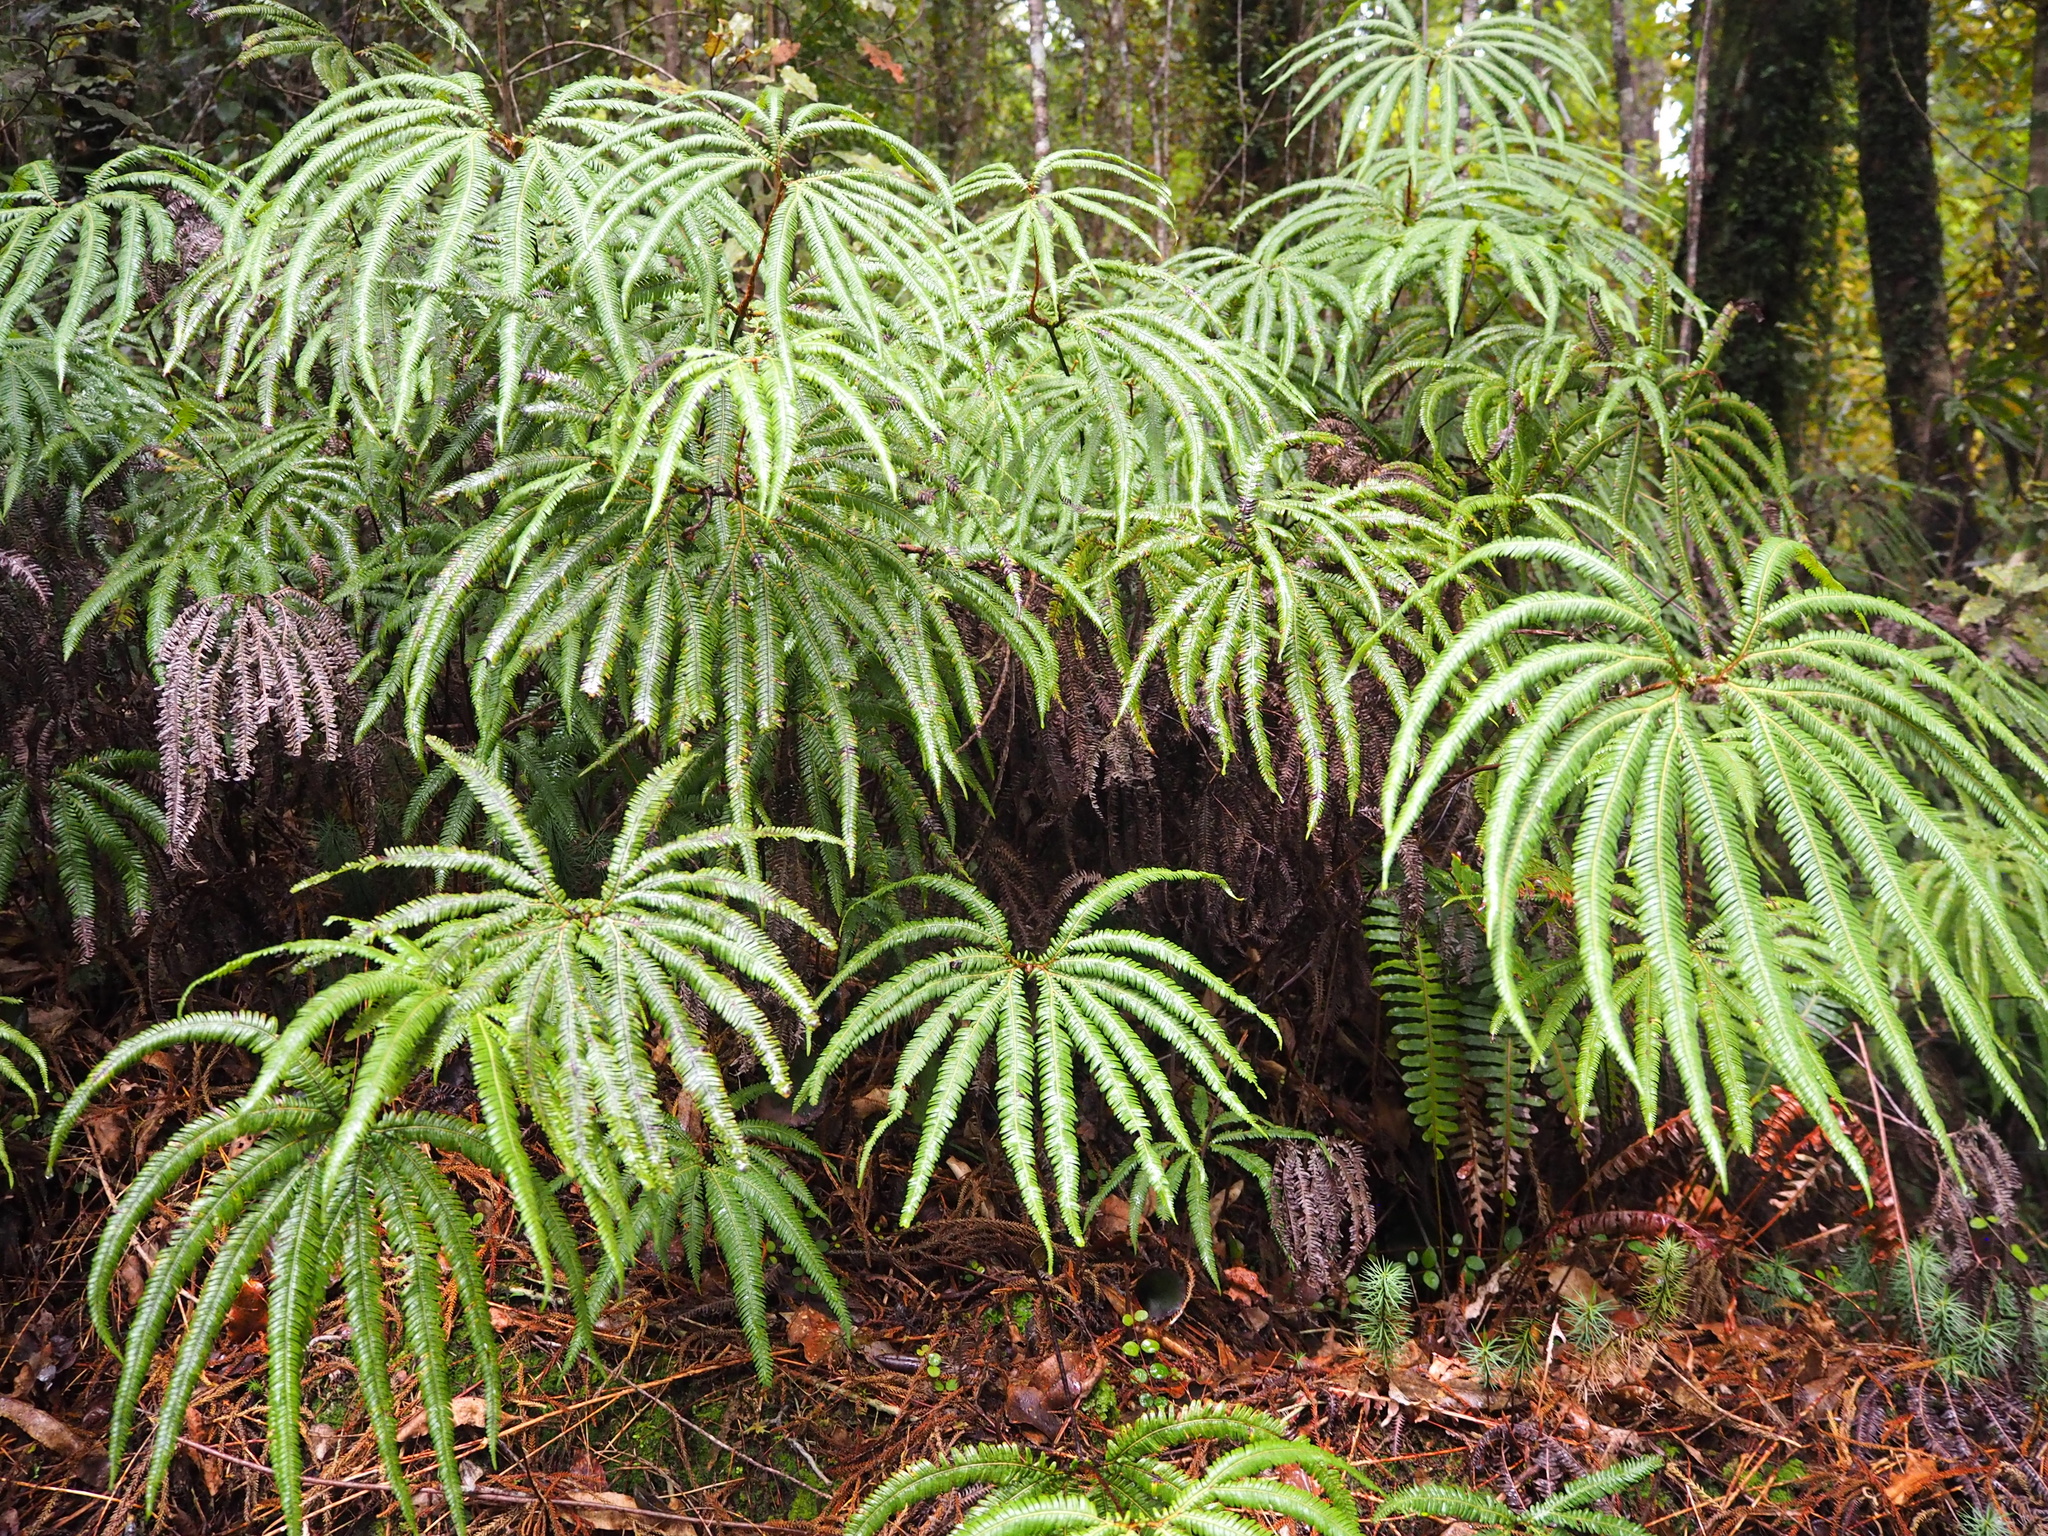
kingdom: Plantae
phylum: Tracheophyta
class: Polypodiopsida
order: Gleicheniales
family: Gleicheniaceae
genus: Sticherus
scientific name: Sticherus cunninghamii
